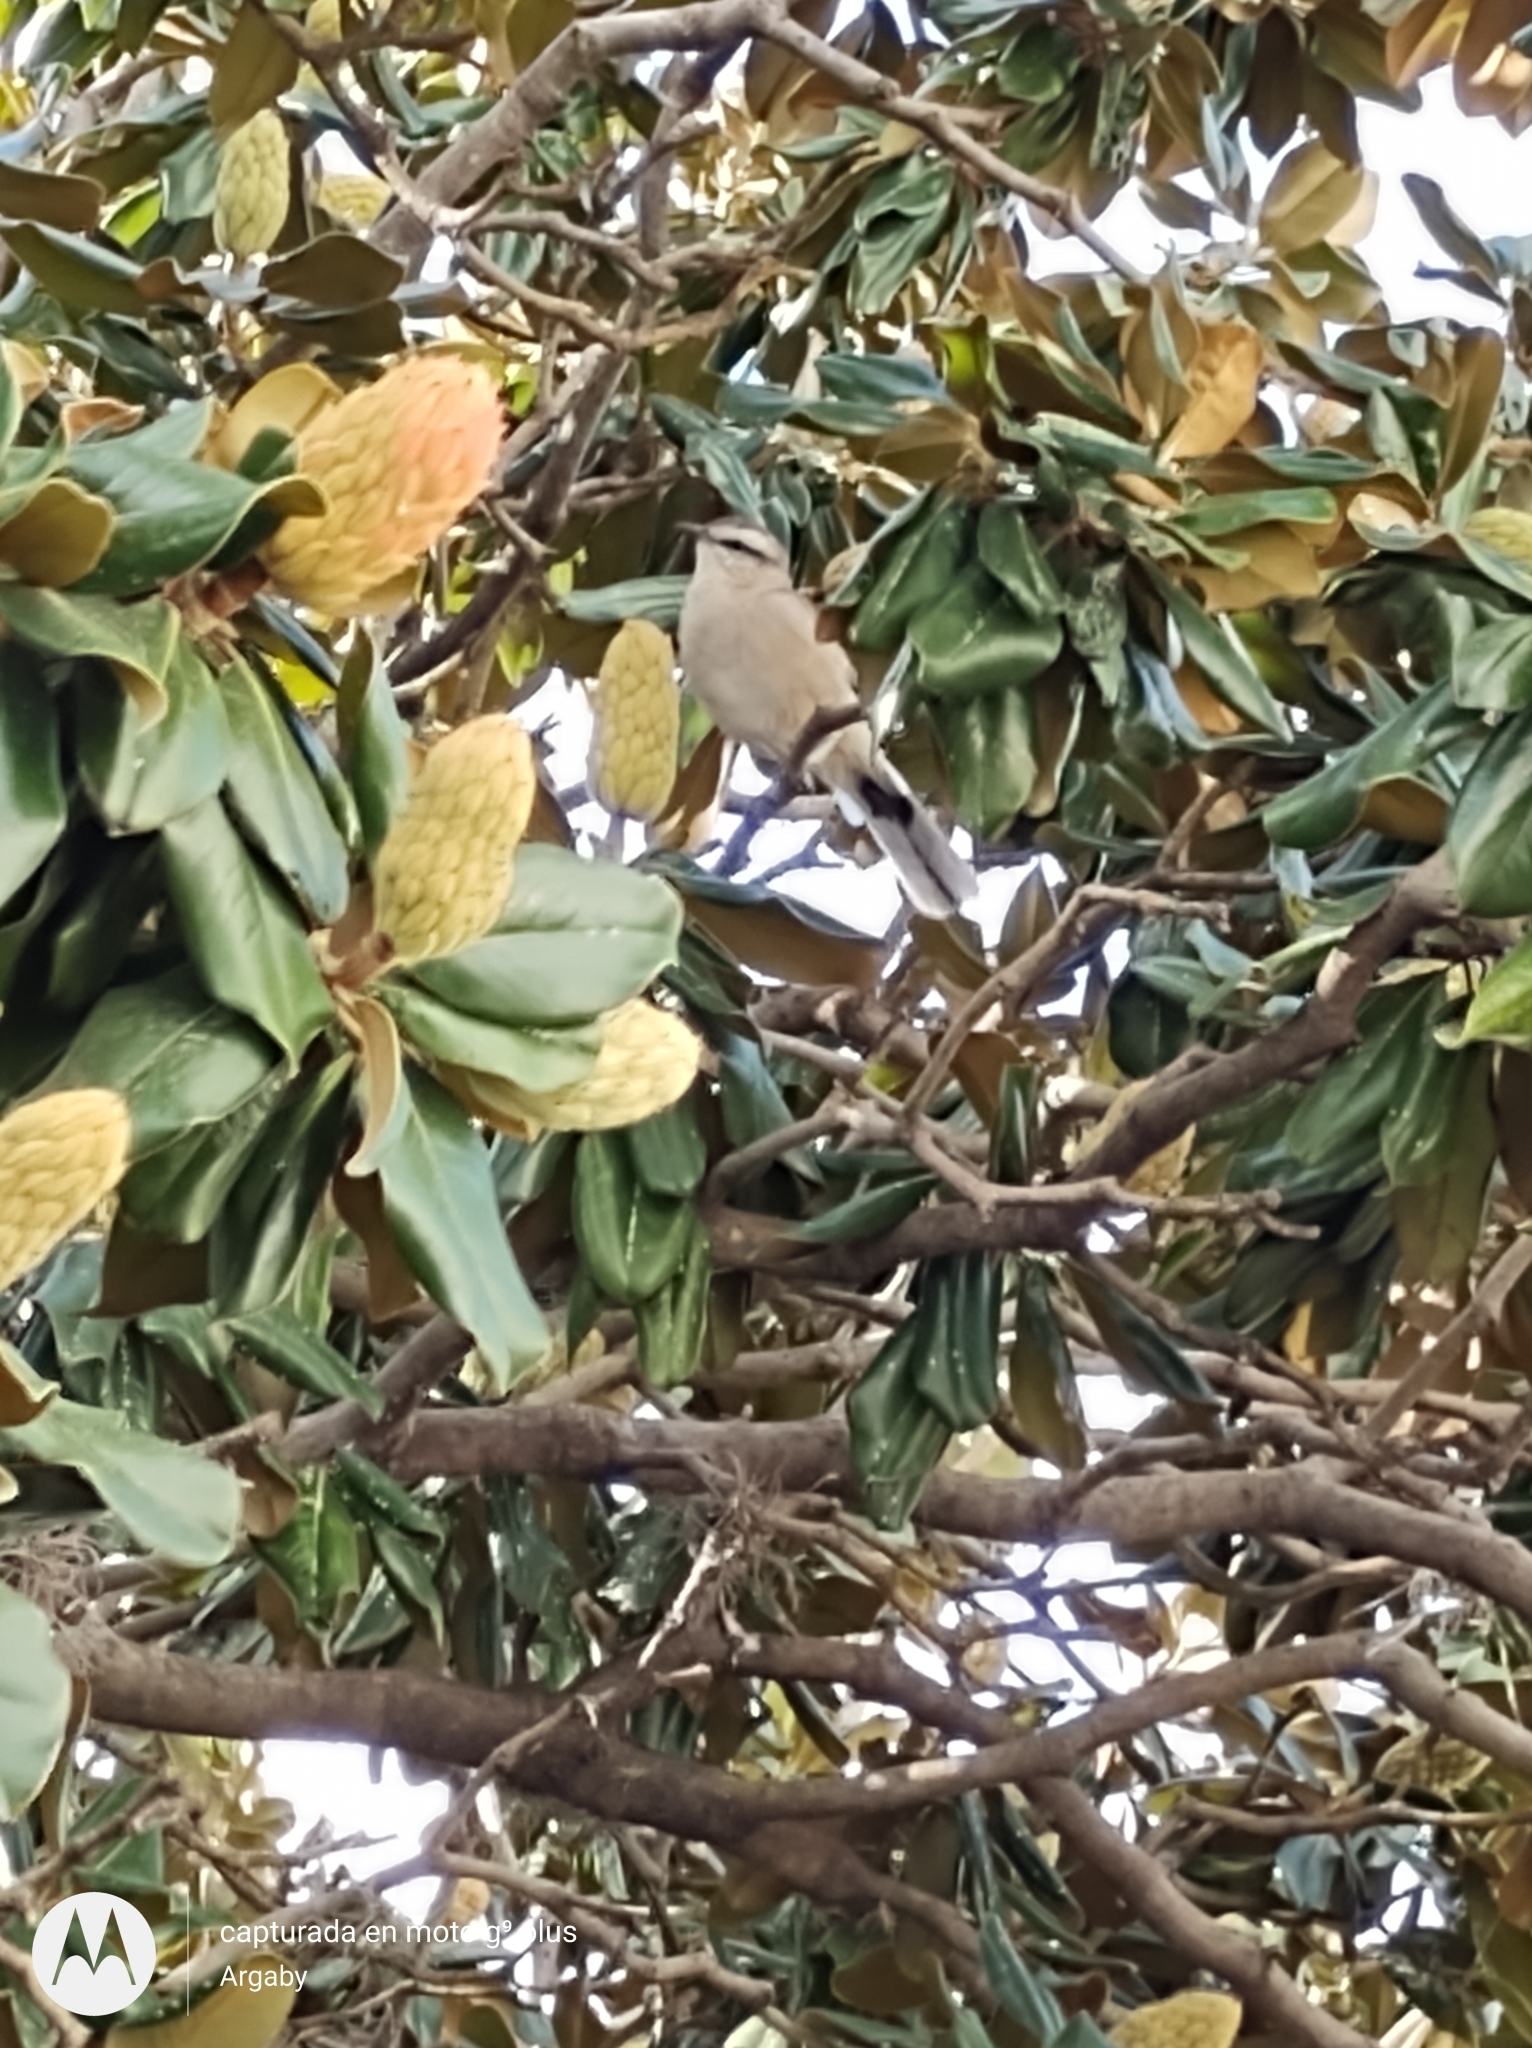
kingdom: Animalia
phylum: Chordata
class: Aves
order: Passeriformes
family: Mimidae
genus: Mimus
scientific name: Mimus saturninus
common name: Chalk-browed mockingbird
